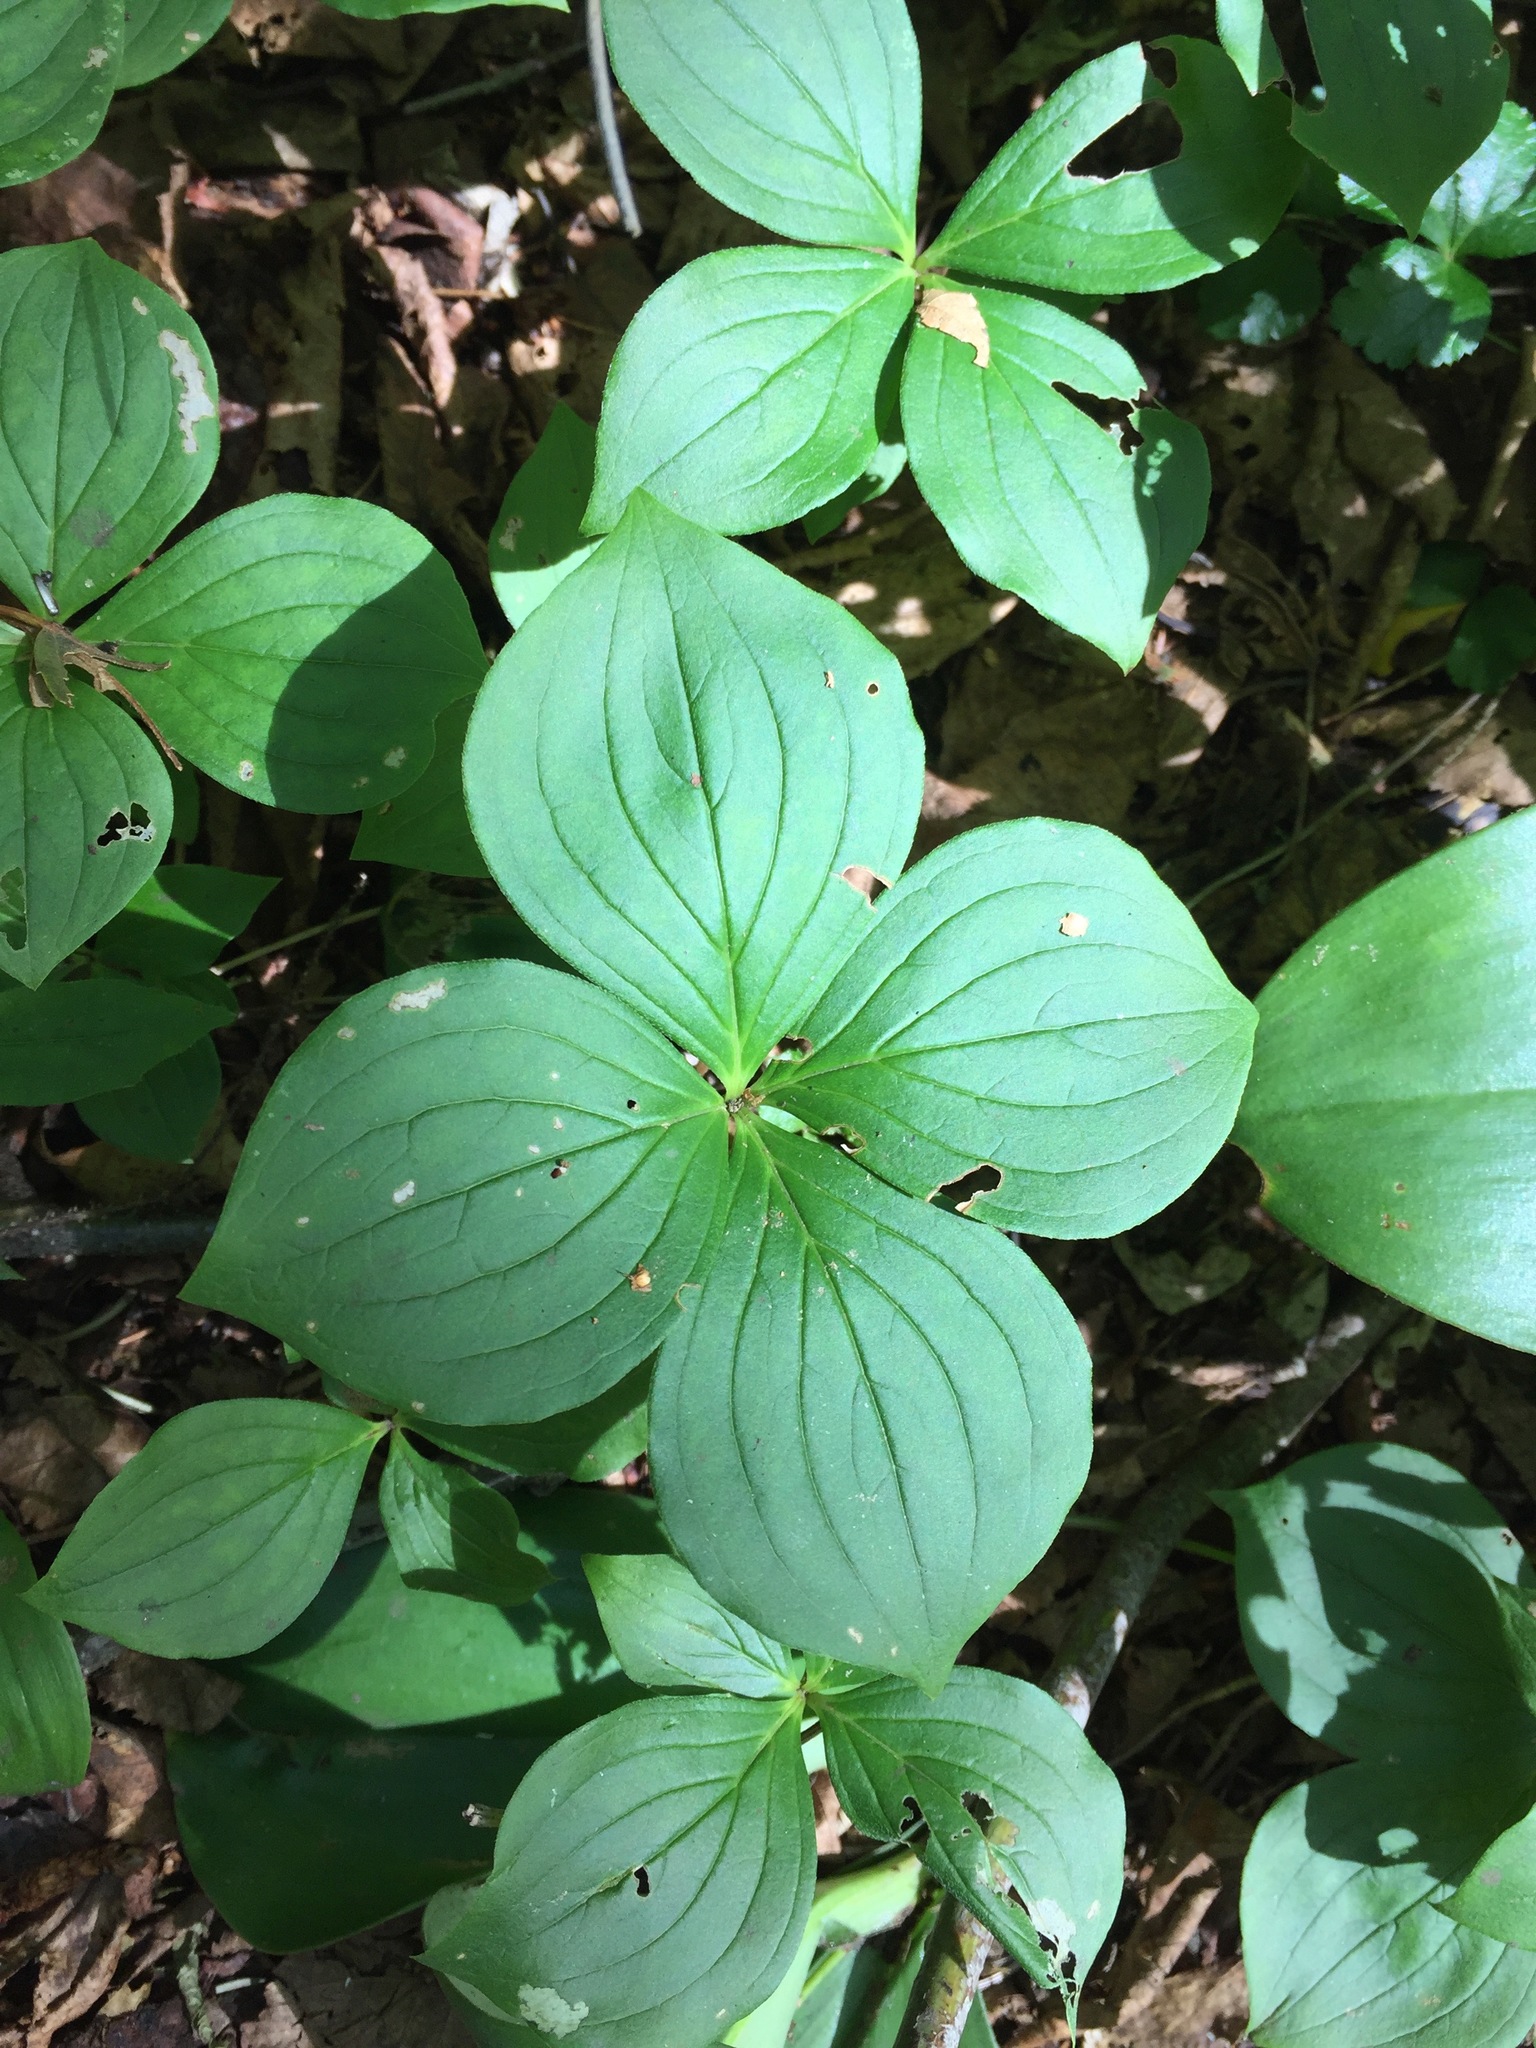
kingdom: Plantae
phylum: Tracheophyta
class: Magnoliopsida
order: Cornales
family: Cornaceae
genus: Cornus
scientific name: Cornus canadensis
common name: Creeping dogwood
